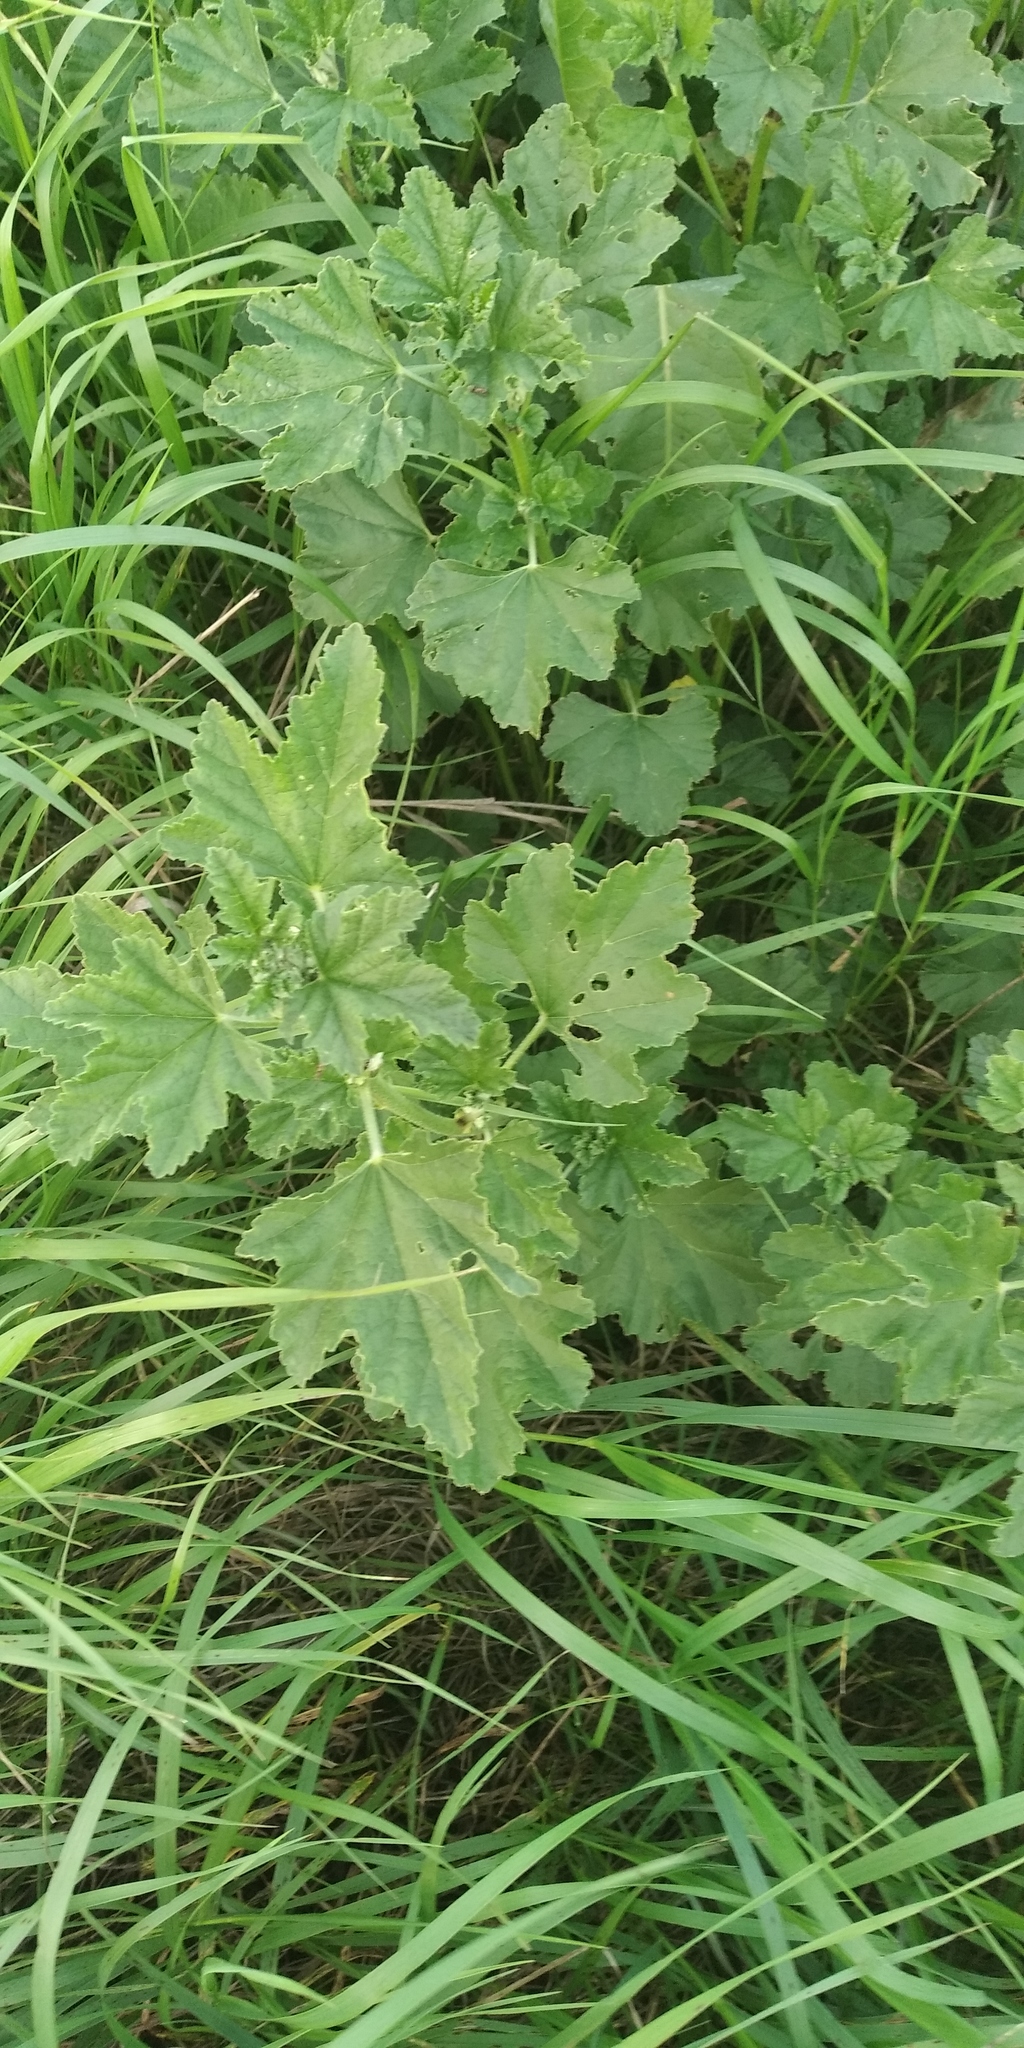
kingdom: Plantae
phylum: Tracheophyta
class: Magnoliopsida
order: Malvales
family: Malvaceae
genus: Malva
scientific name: Malva thuringiaca
